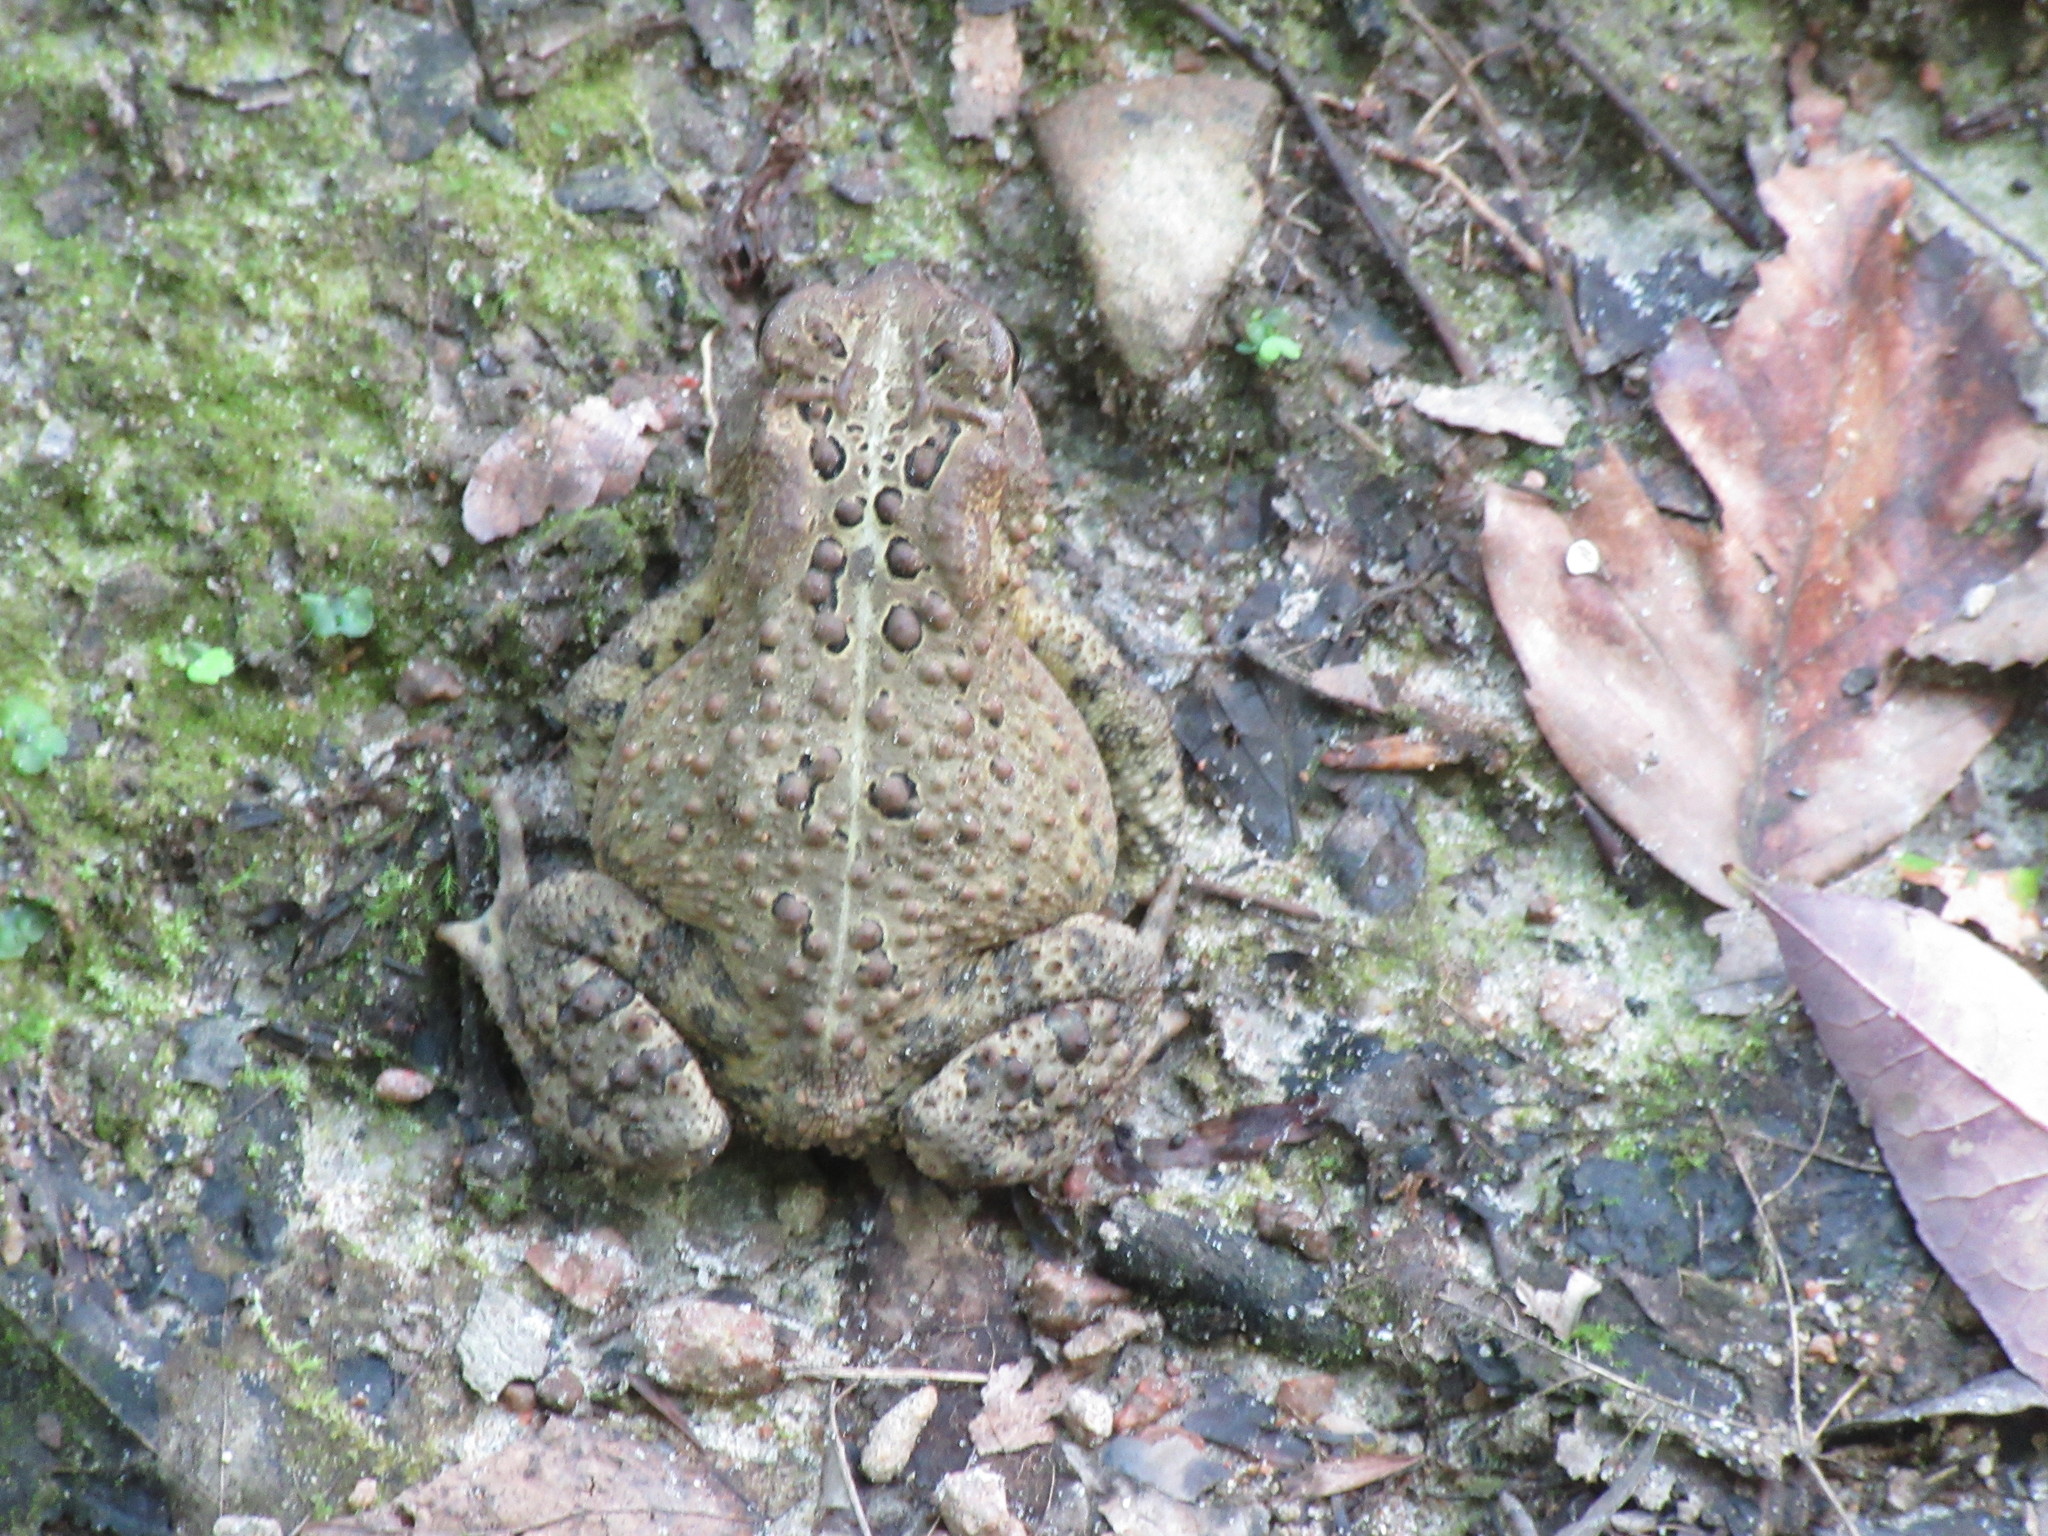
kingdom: Animalia
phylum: Chordata
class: Amphibia
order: Anura
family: Bufonidae
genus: Anaxyrus
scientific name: Anaxyrus americanus
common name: American toad
